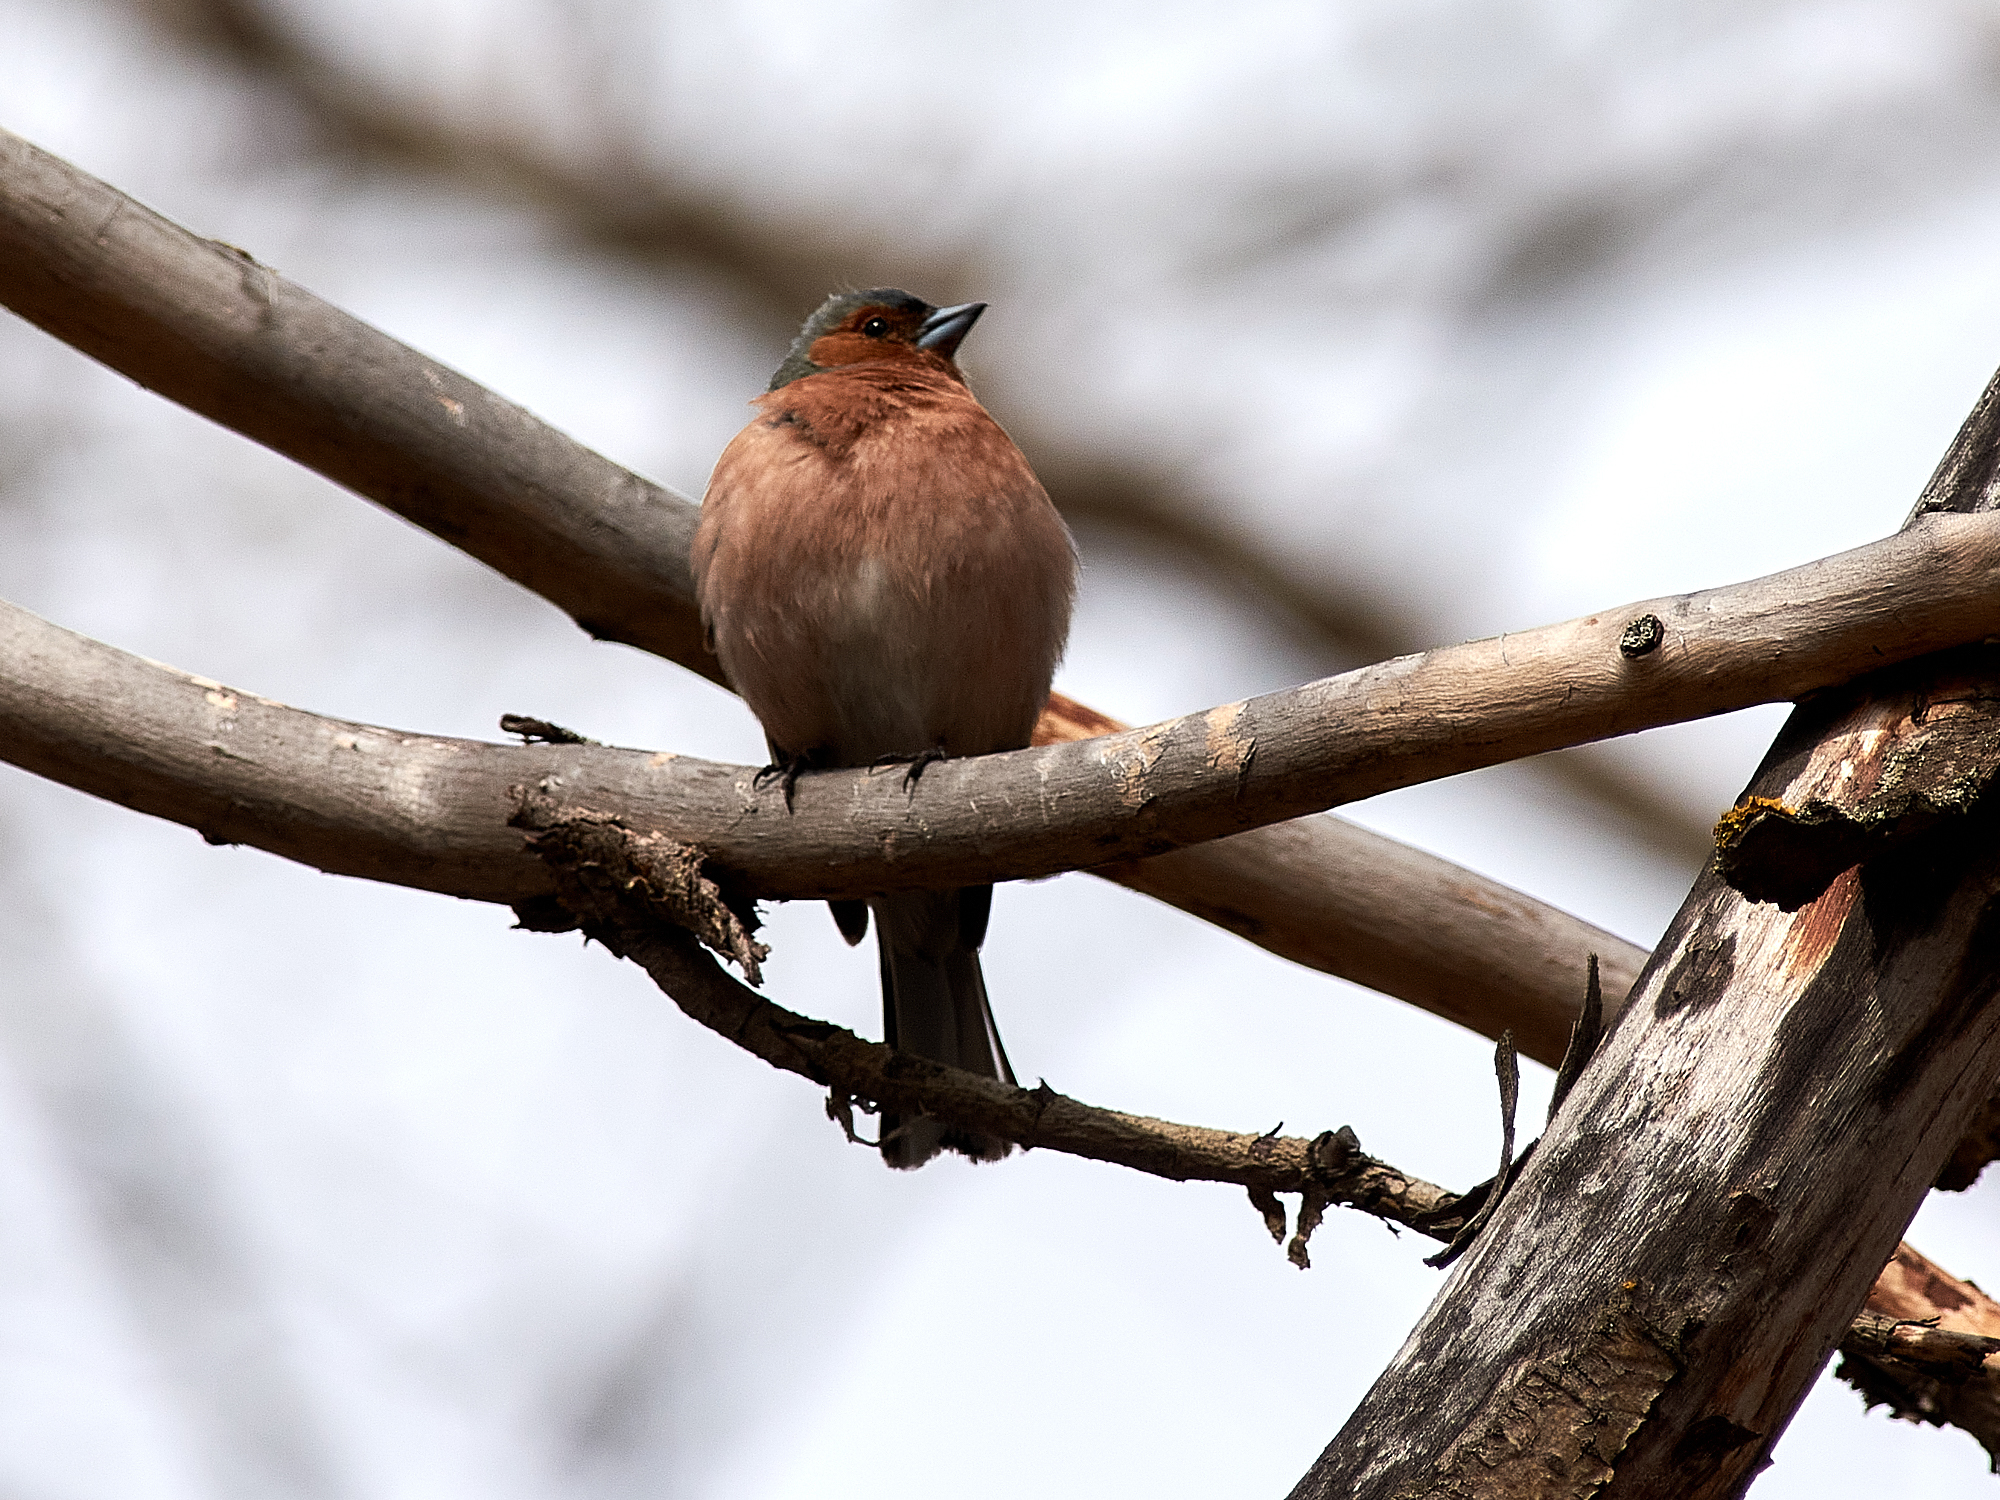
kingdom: Animalia
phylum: Chordata
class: Aves
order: Passeriformes
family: Fringillidae
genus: Fringilla
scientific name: Fringilla coelebs
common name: Common chaffinch
